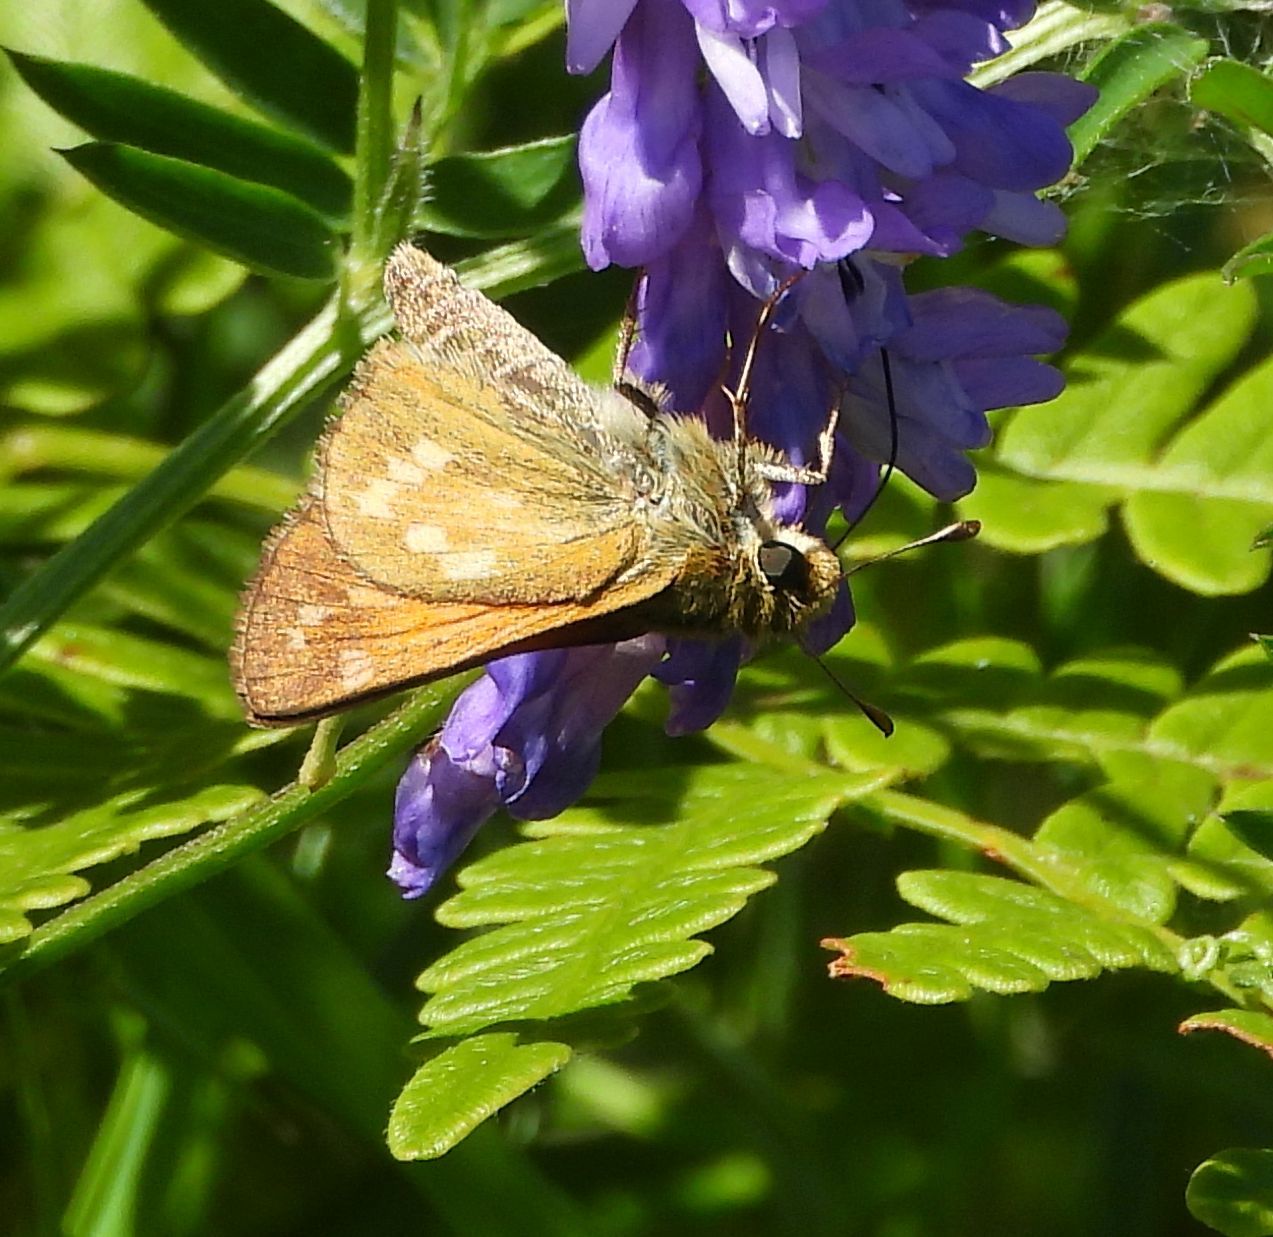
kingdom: Animalia
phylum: Arthropoda
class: Insecta
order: Lepidoptera
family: Hesperiidae
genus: Hesperia
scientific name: Hesperia sassacus
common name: Indian skipper
